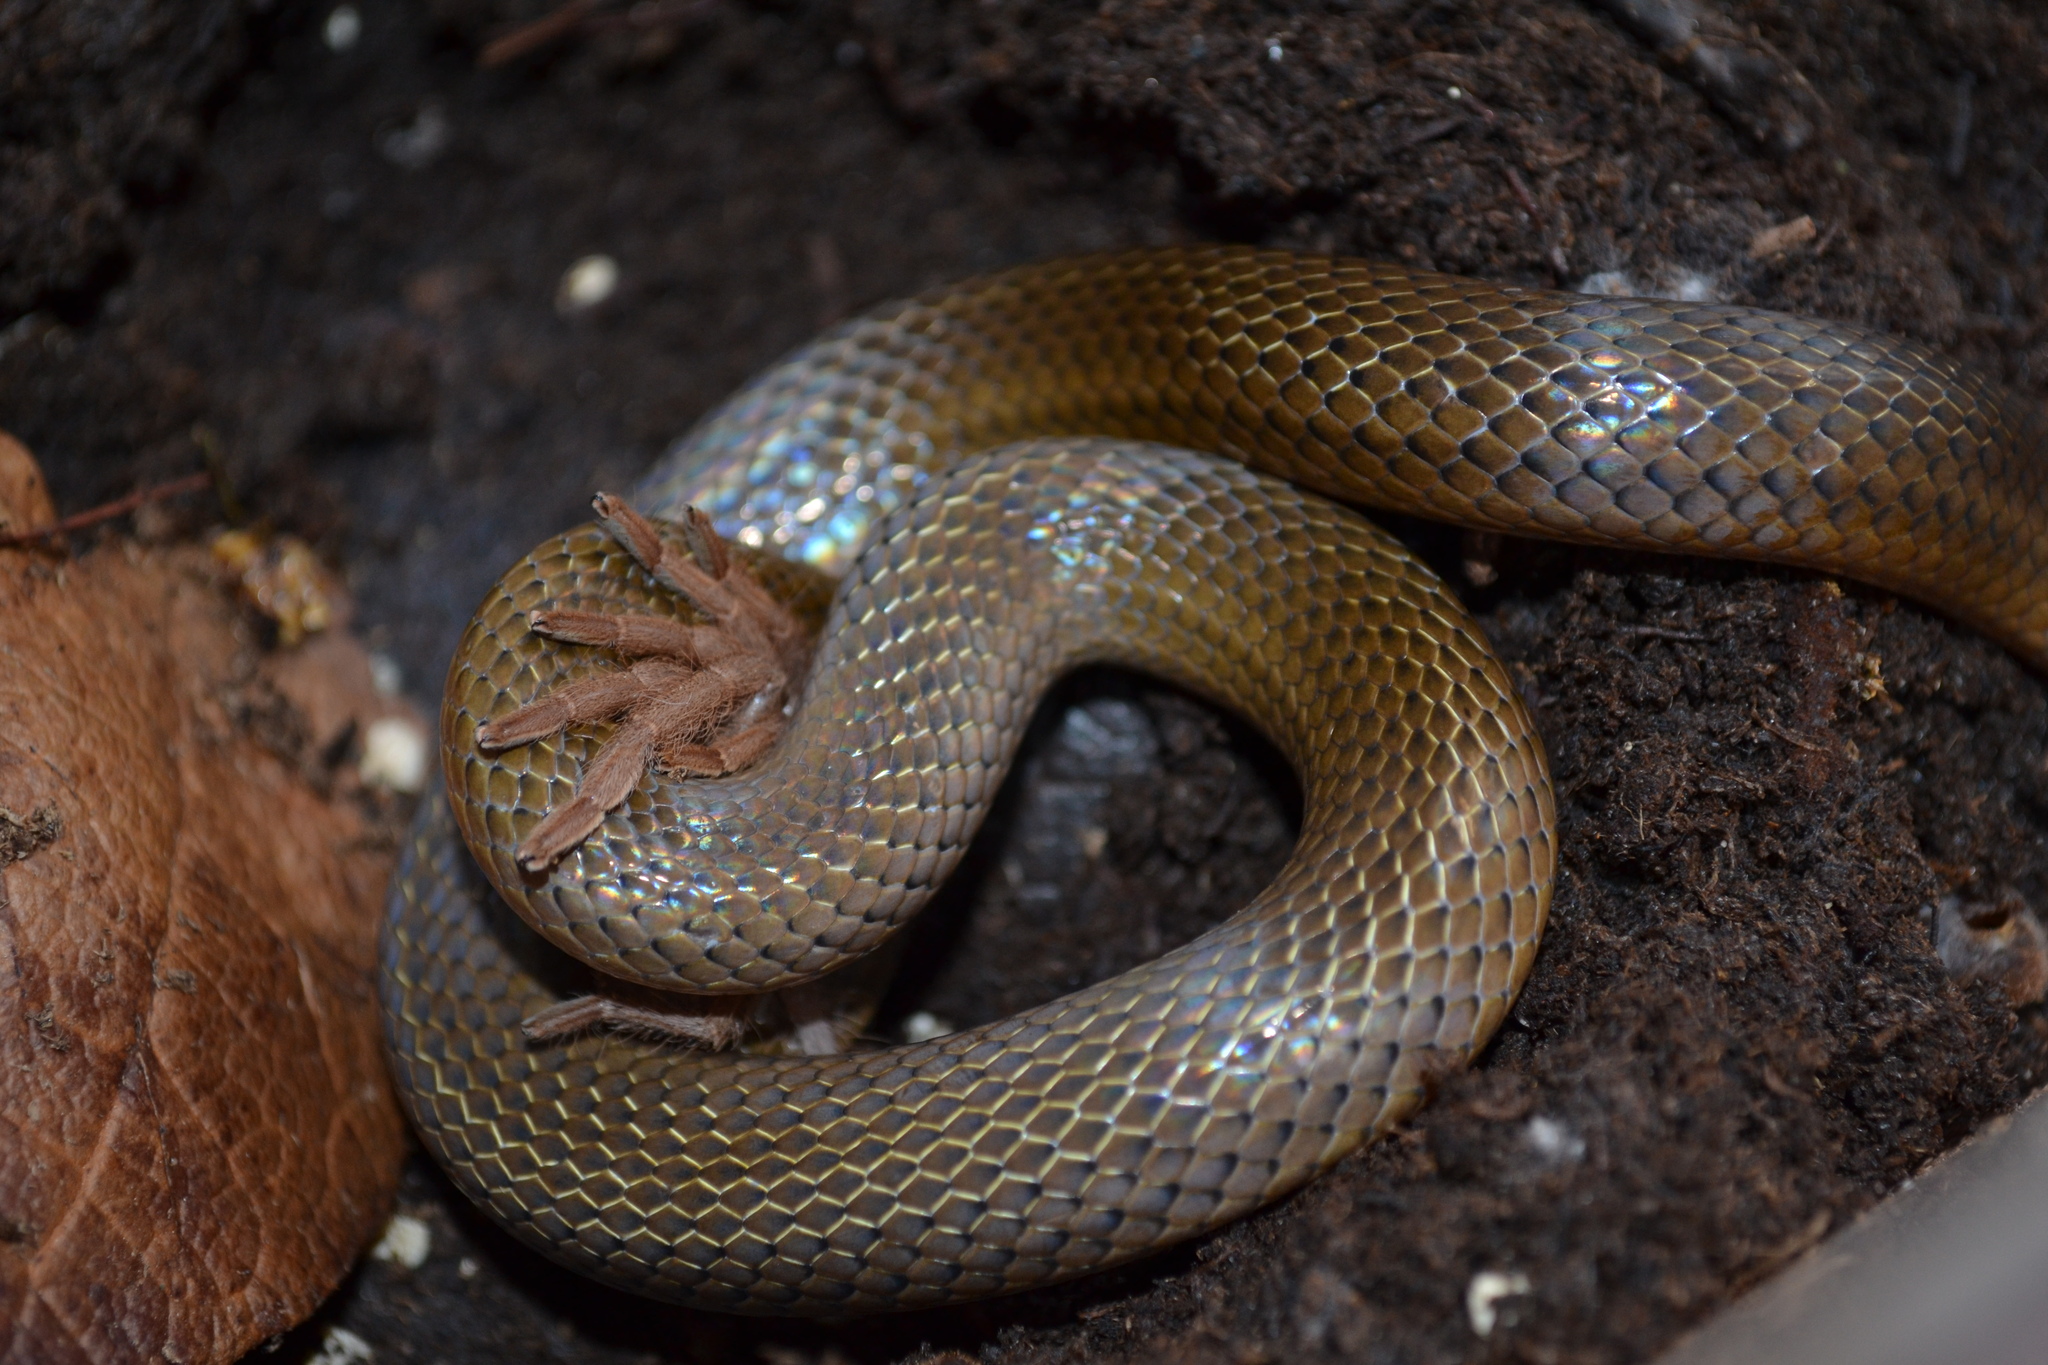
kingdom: Animalia
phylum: Chordata
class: Squamata
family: Colubridae
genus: Stenorrhina
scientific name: Stenorrhina freminvillei
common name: Blood snake
